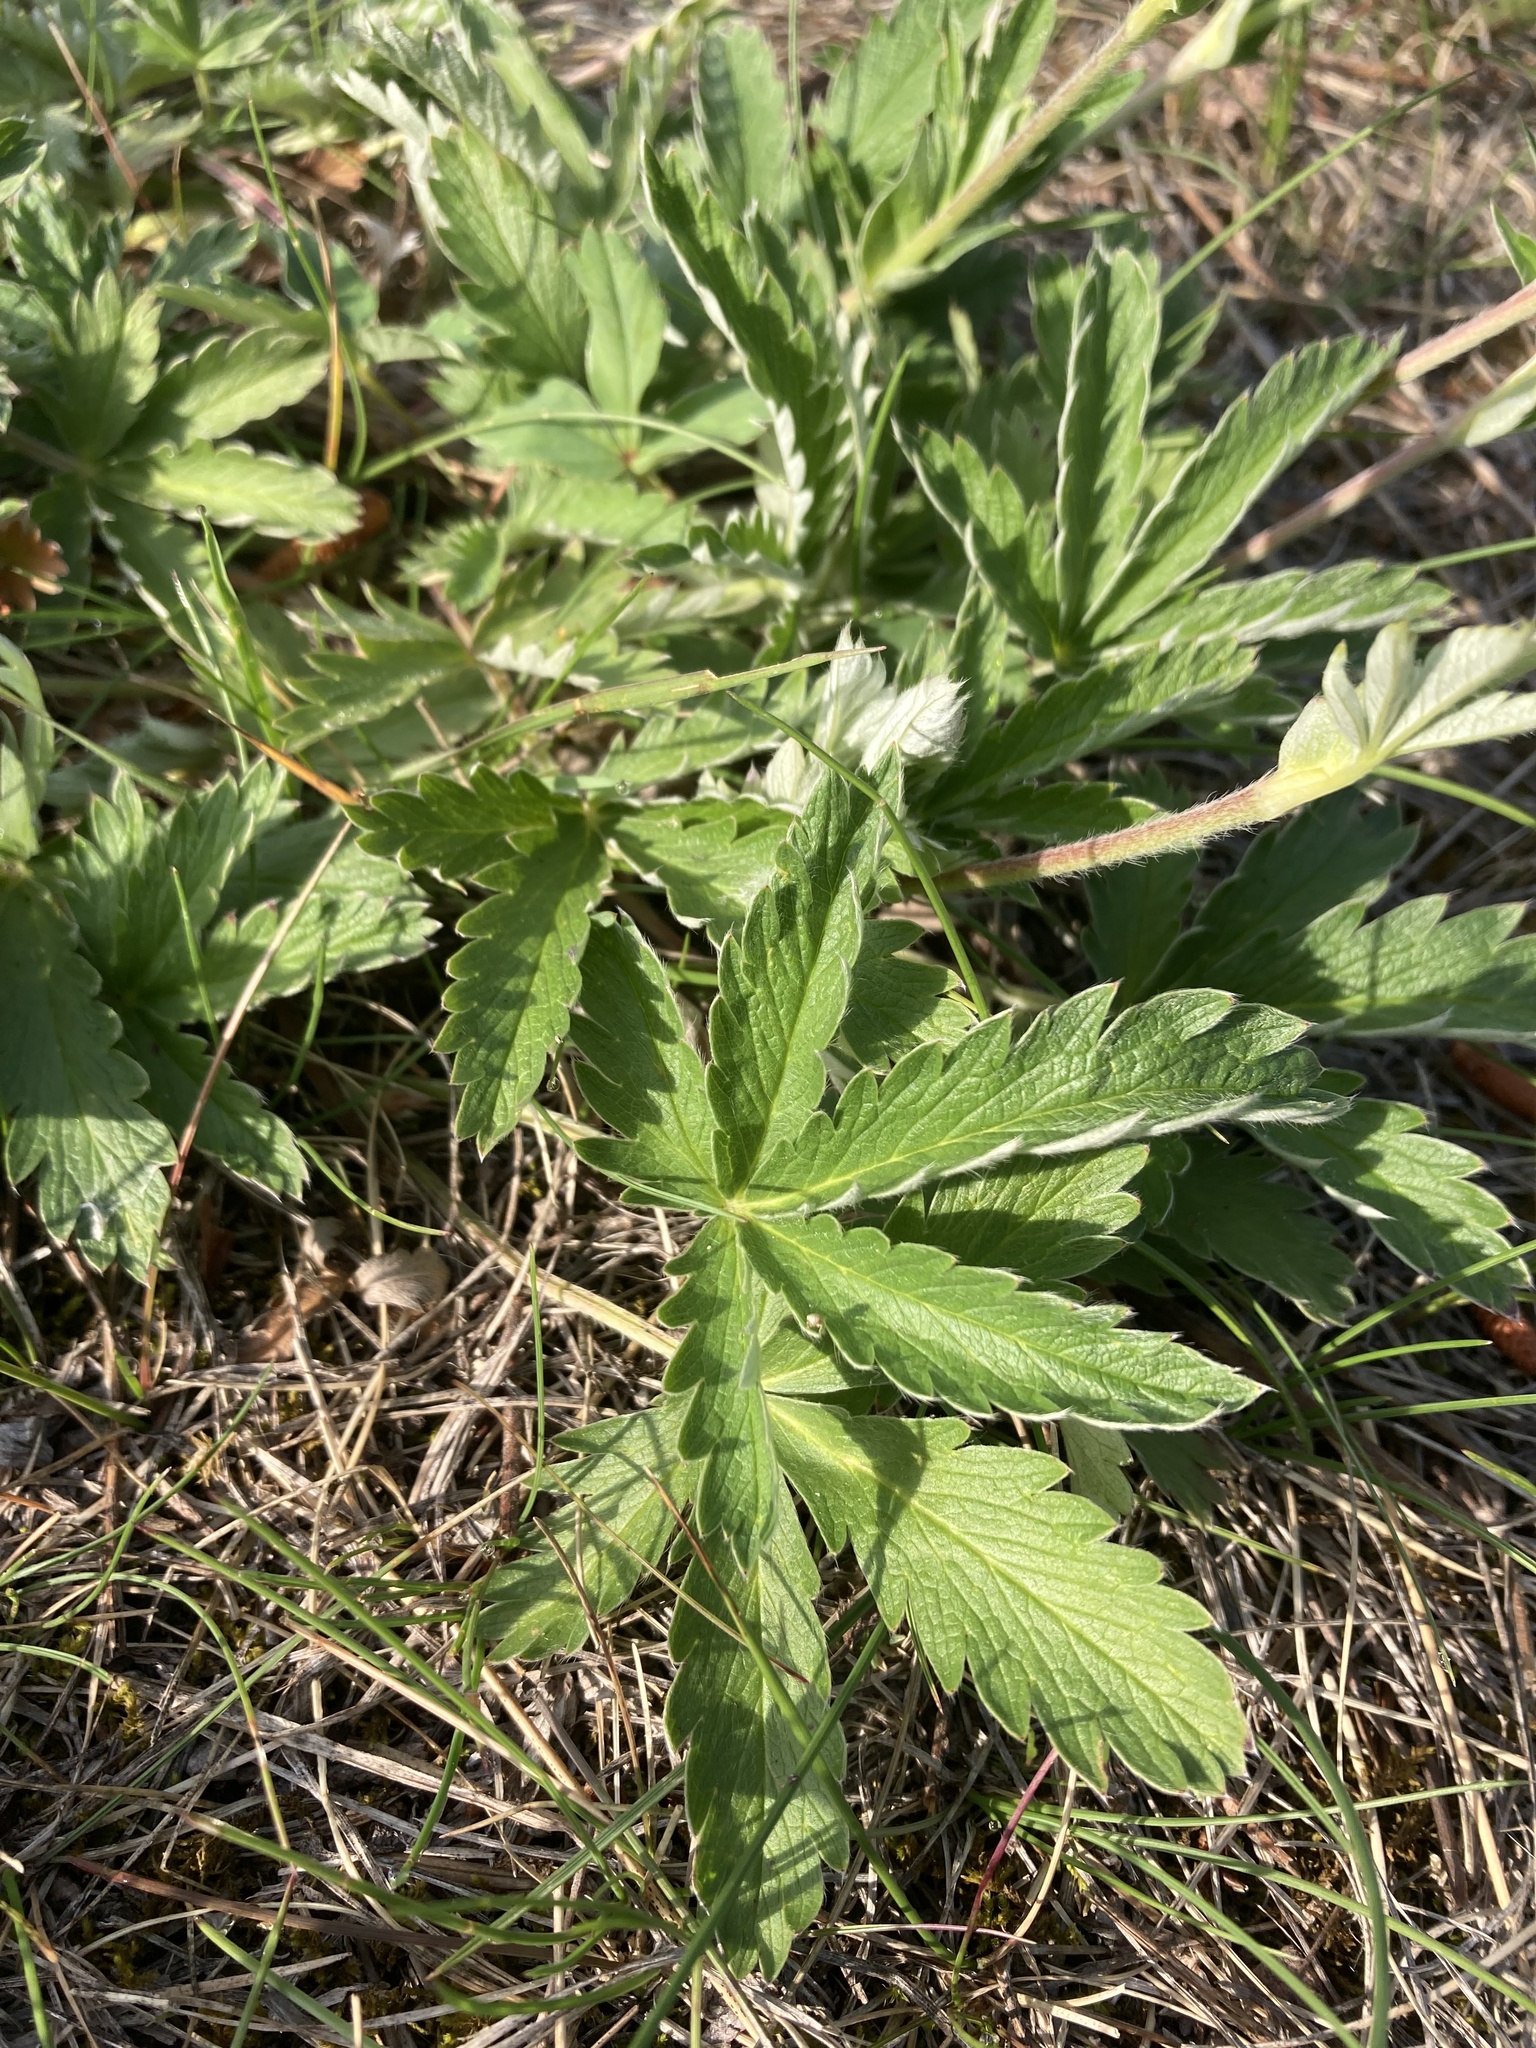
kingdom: Plantae
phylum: Tracheophyta
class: Magnoliopsida
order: Rosales
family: Rosaceae
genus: Potentilla
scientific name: Potentilla pulcherrima
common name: Beautiful cinquefoil
